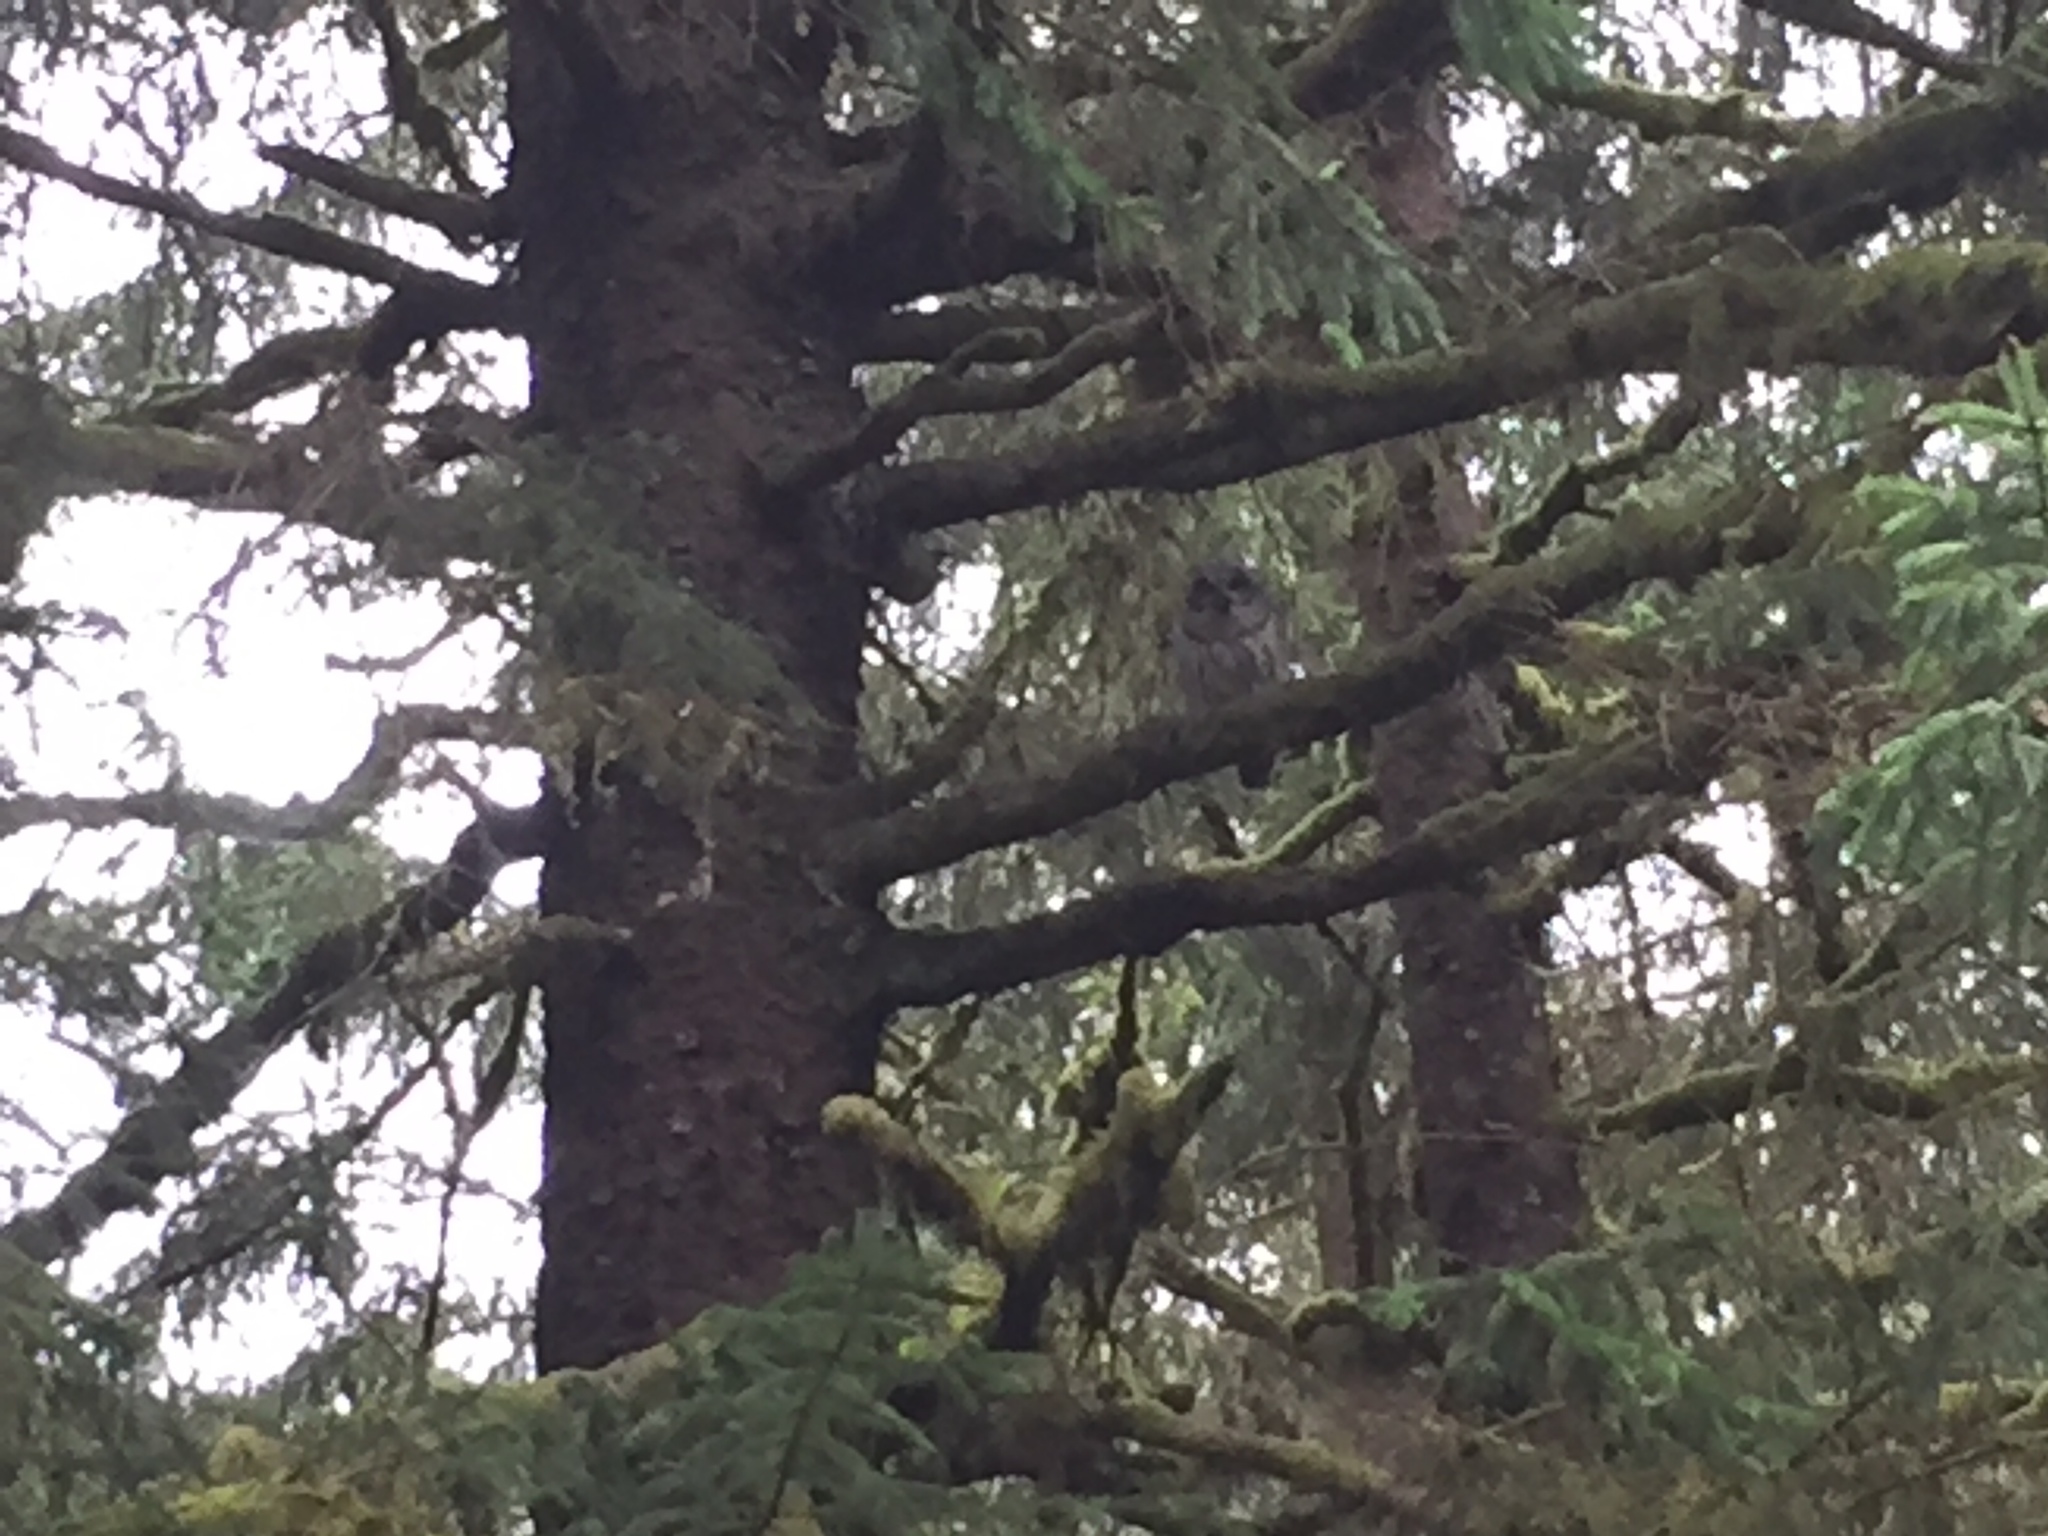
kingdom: Animalia
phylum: Chordata
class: Aves
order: Strigiformes
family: Strigidae
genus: Strix
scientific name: Strix varia
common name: Barred owl
